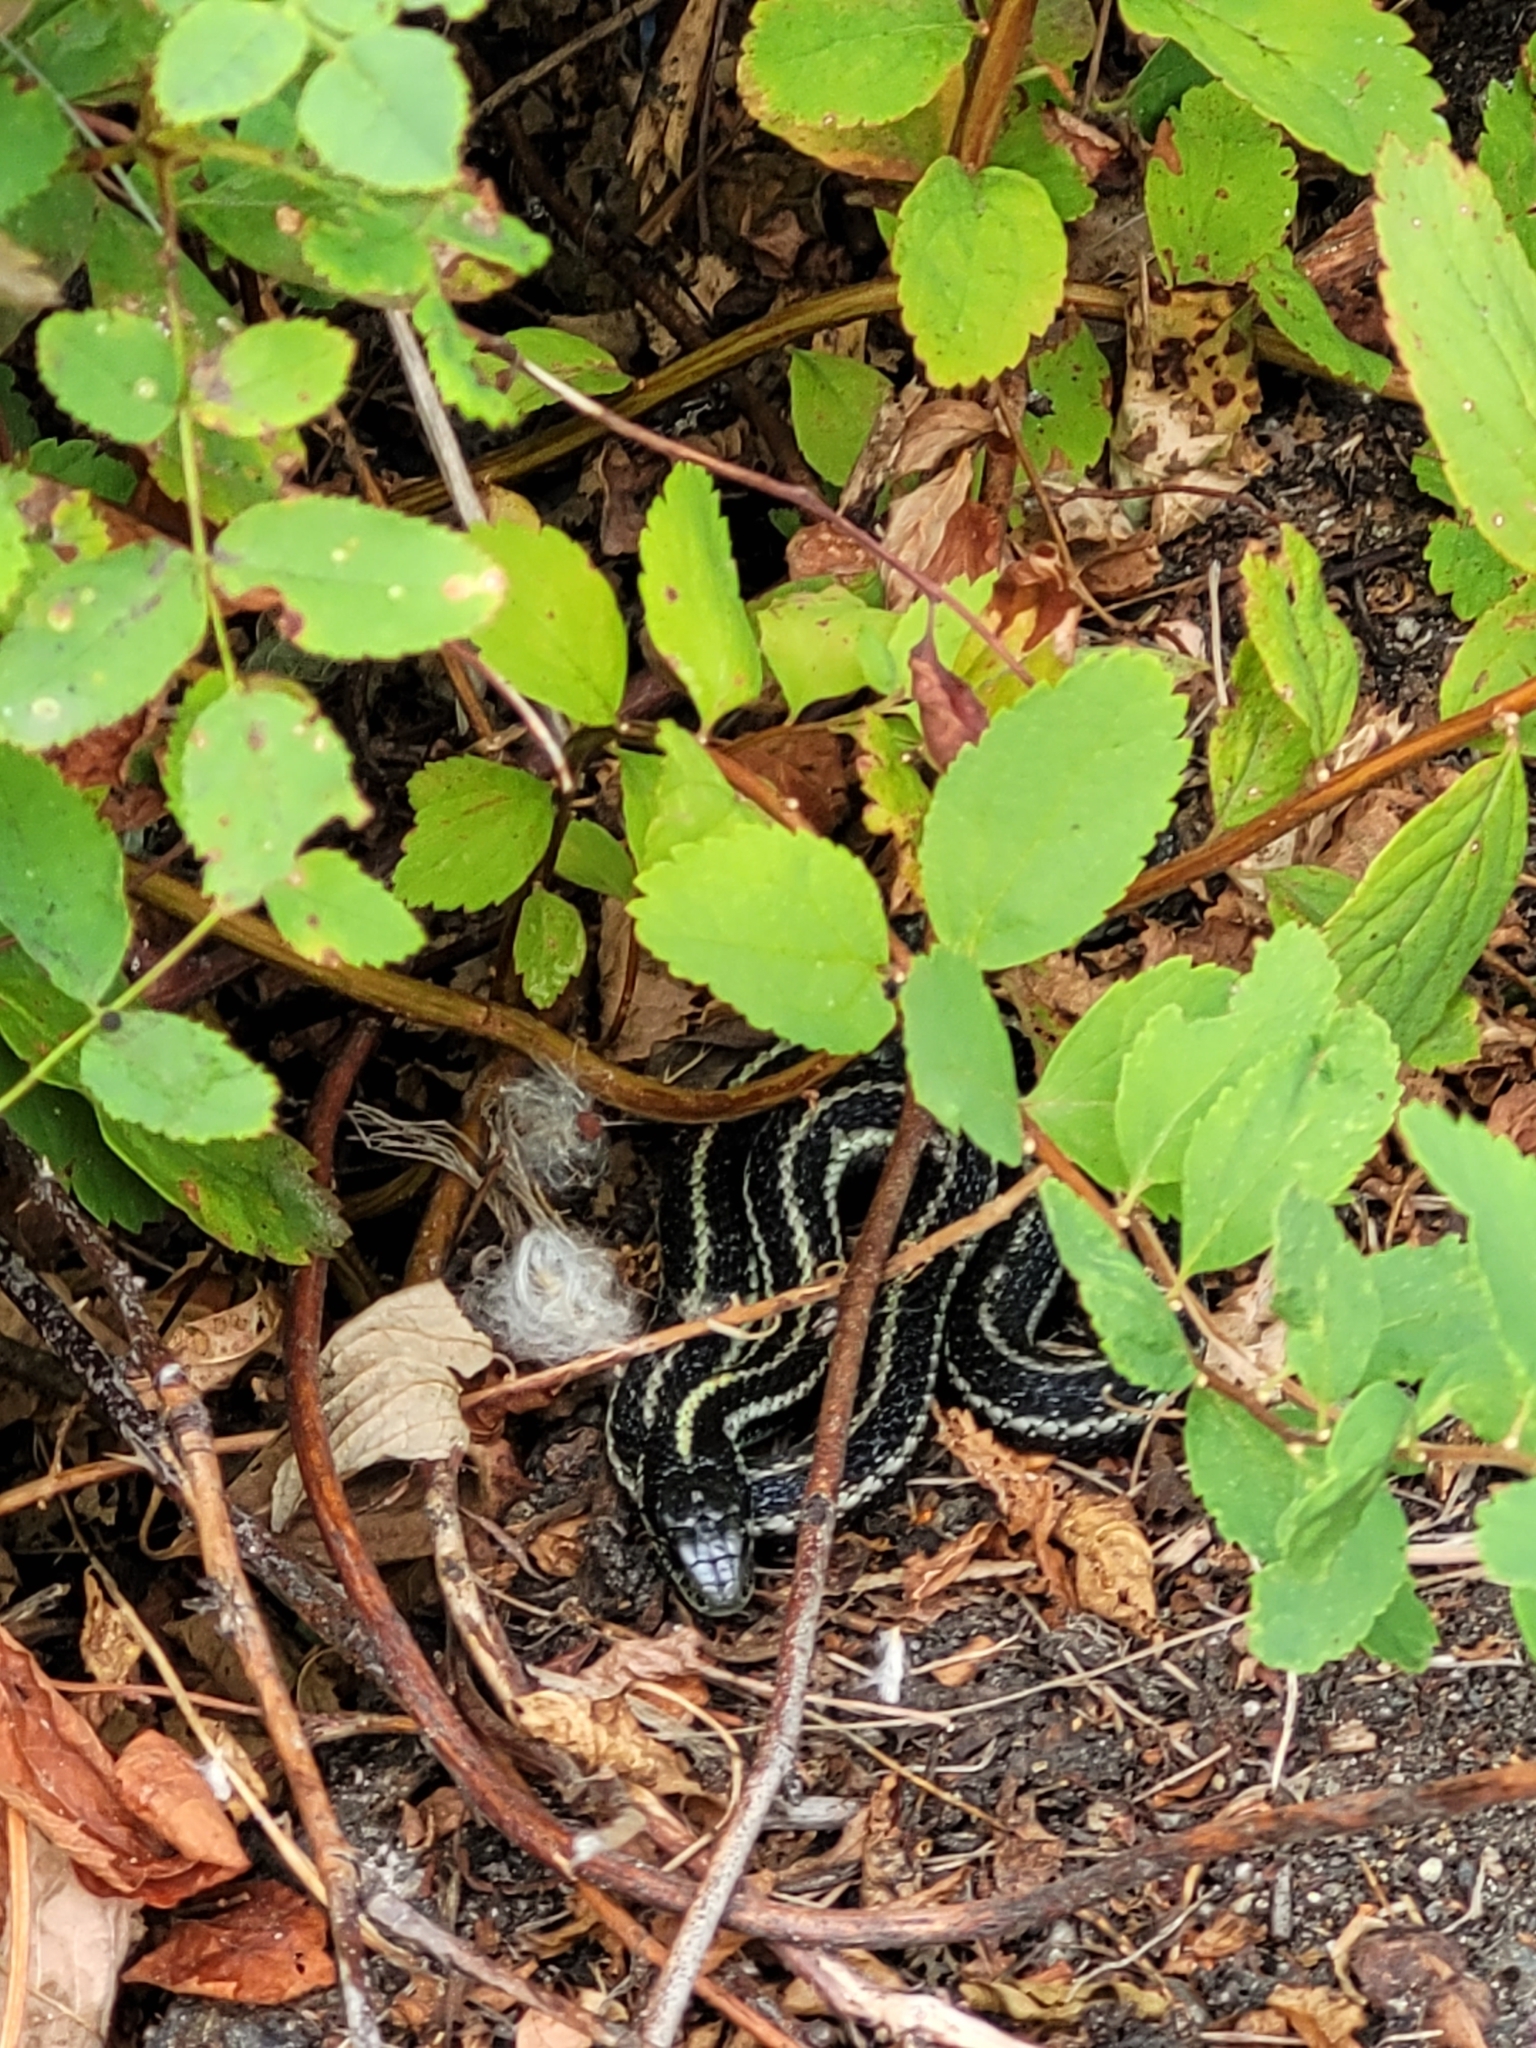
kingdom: Animalia
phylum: Chordata
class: Squamata
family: Colubridae
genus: Thamnophis
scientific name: Thamnophis ordinoides
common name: Northwestern garter snake
